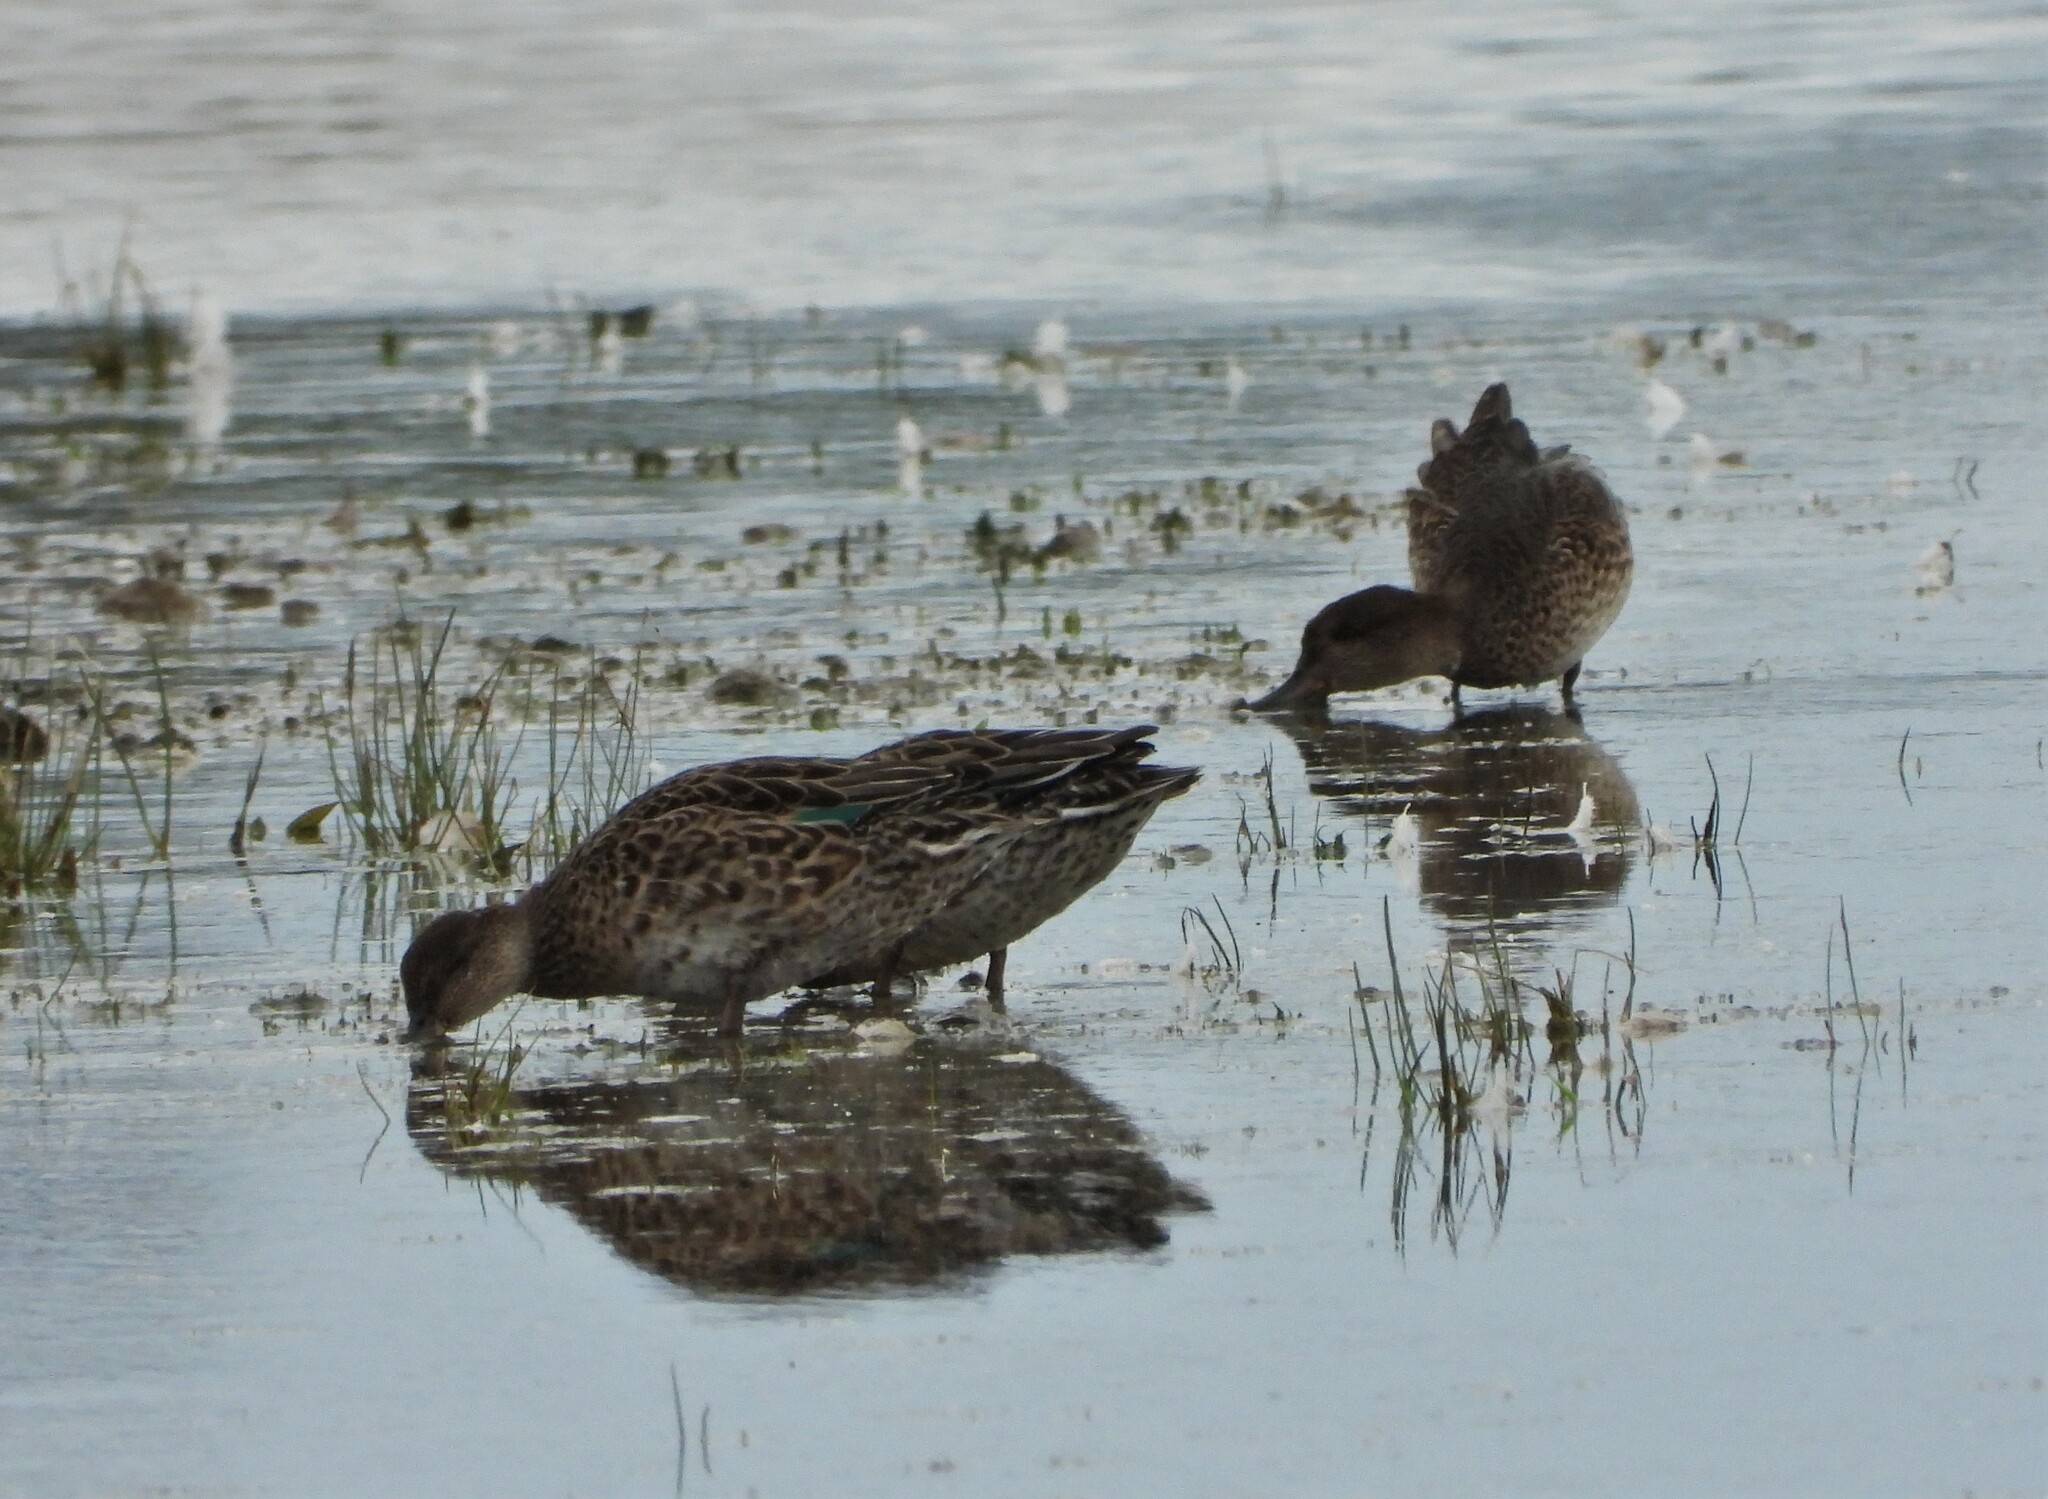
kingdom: Animalia
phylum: Chordata
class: Aves
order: Anseriformes
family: Anatidae
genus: Anas
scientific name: Anas crecca
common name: Eurasian teal
